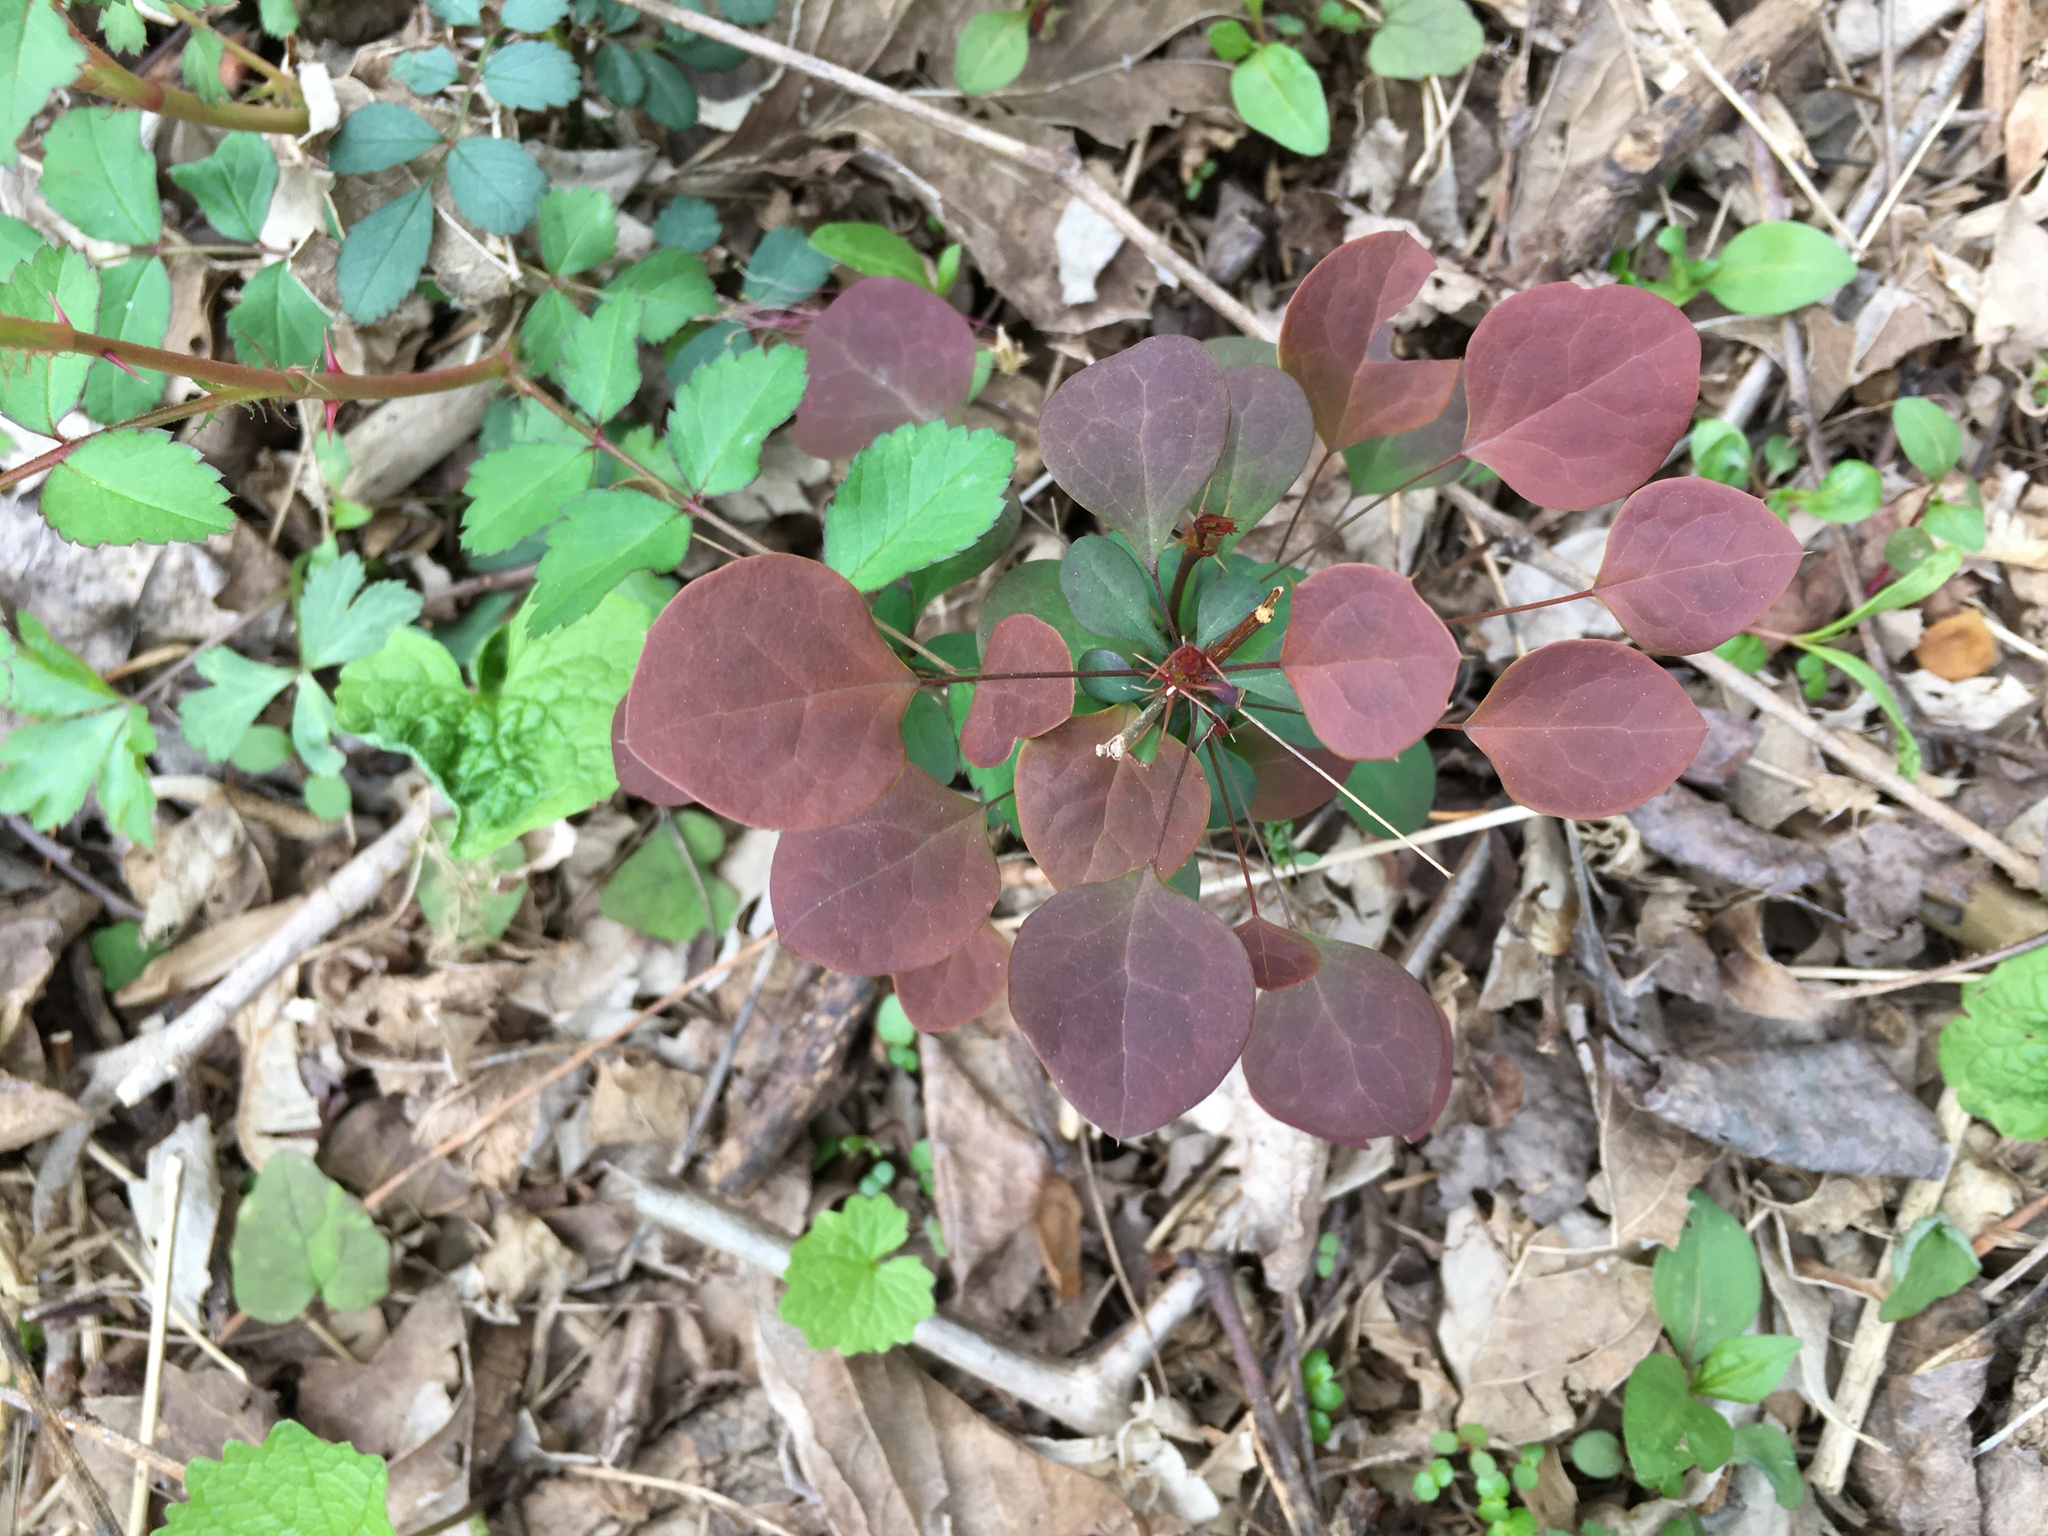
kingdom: Plantae
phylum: Tracheophyta
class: Magnoliopsida
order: Ranunculales
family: Berberidaceae
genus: Berberis
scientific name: Berberis thunbergii
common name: Japanese barberry
